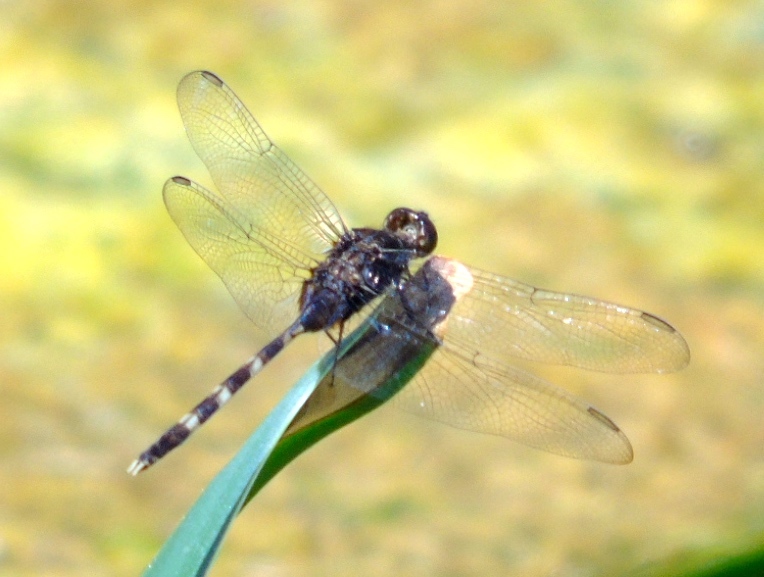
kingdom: Animalia
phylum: Arthropoda
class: Insecta
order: Odonata
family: Libellulidae
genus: Erythemis
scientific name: Erythemis plebeja
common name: Pin-tailed pondhawk
